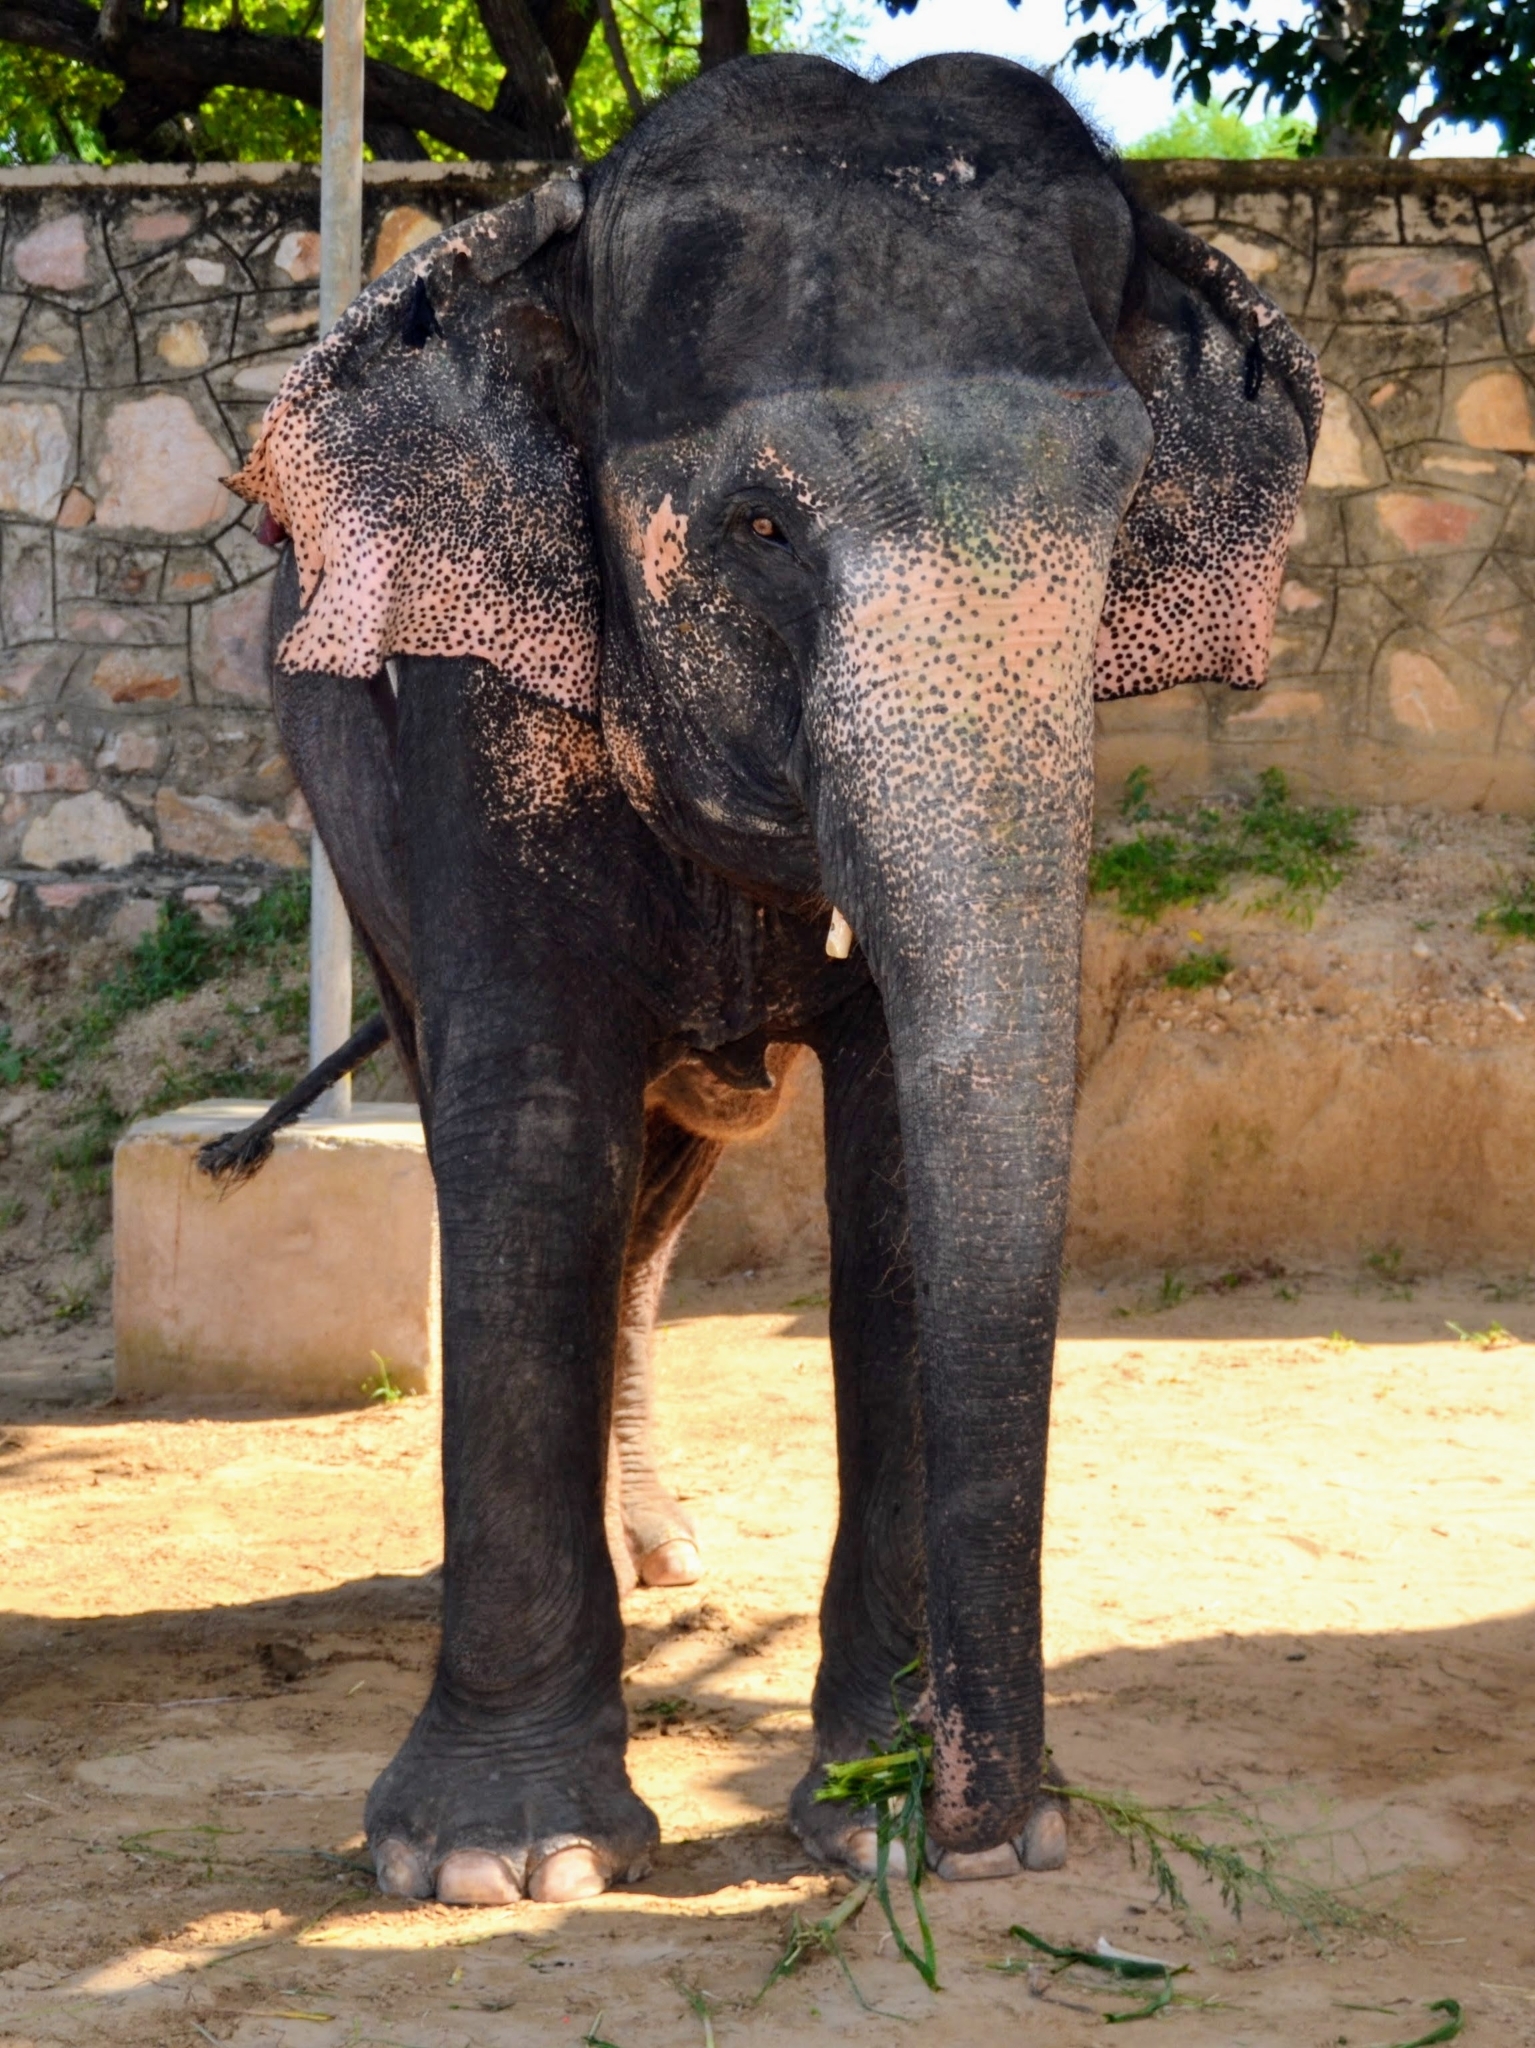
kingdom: Animalia
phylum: Chordata
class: Mammalia
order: Proboscidea
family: Elephantidae
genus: Elephas
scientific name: Elephas maximus
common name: Asian elephant
